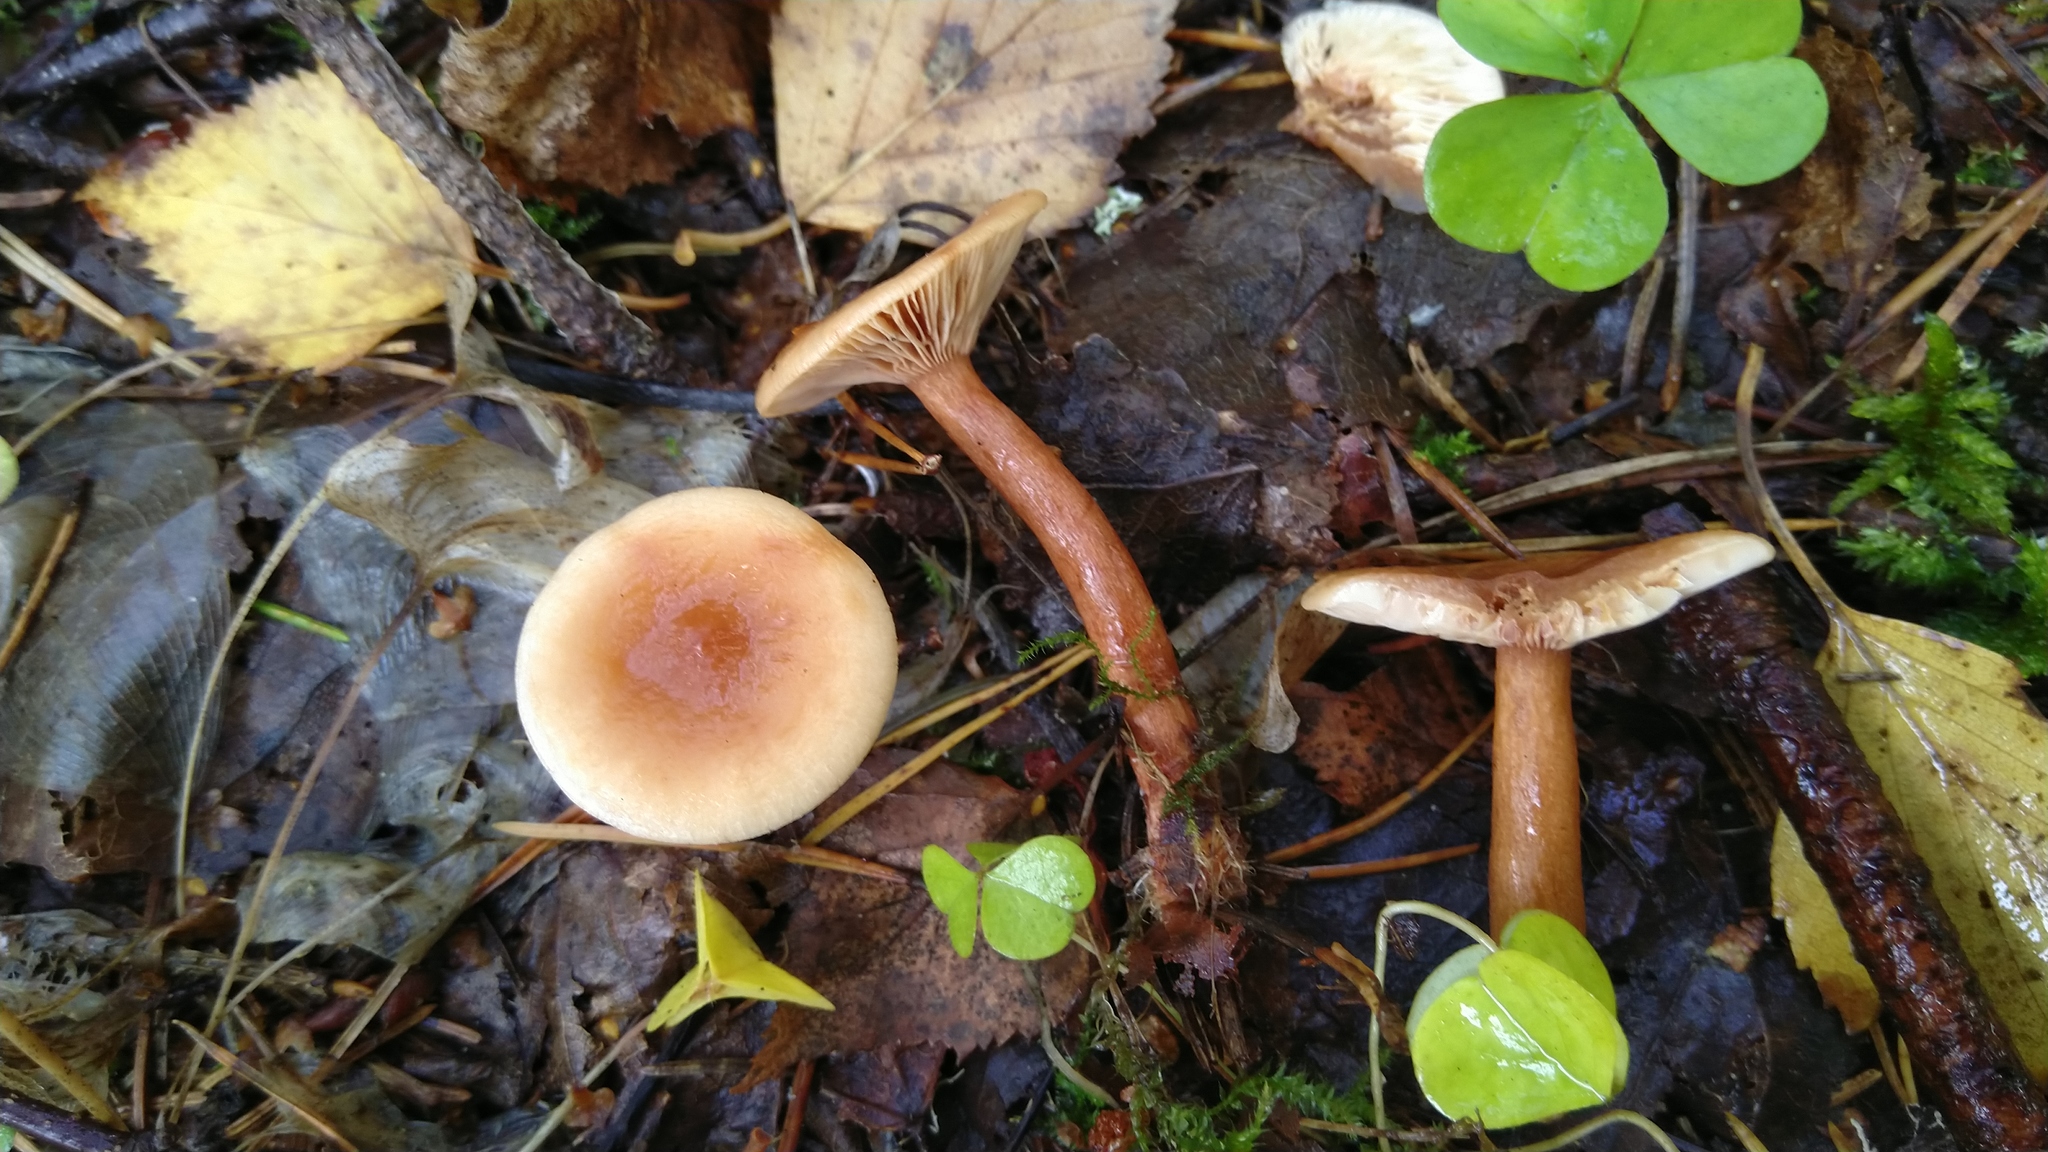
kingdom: Fungi
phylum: Basidiomycota
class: Agaricomycetes
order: Russulales
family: Russulaceae
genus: Lactarius
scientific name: Lactarius tabidus
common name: Birch milkcap
